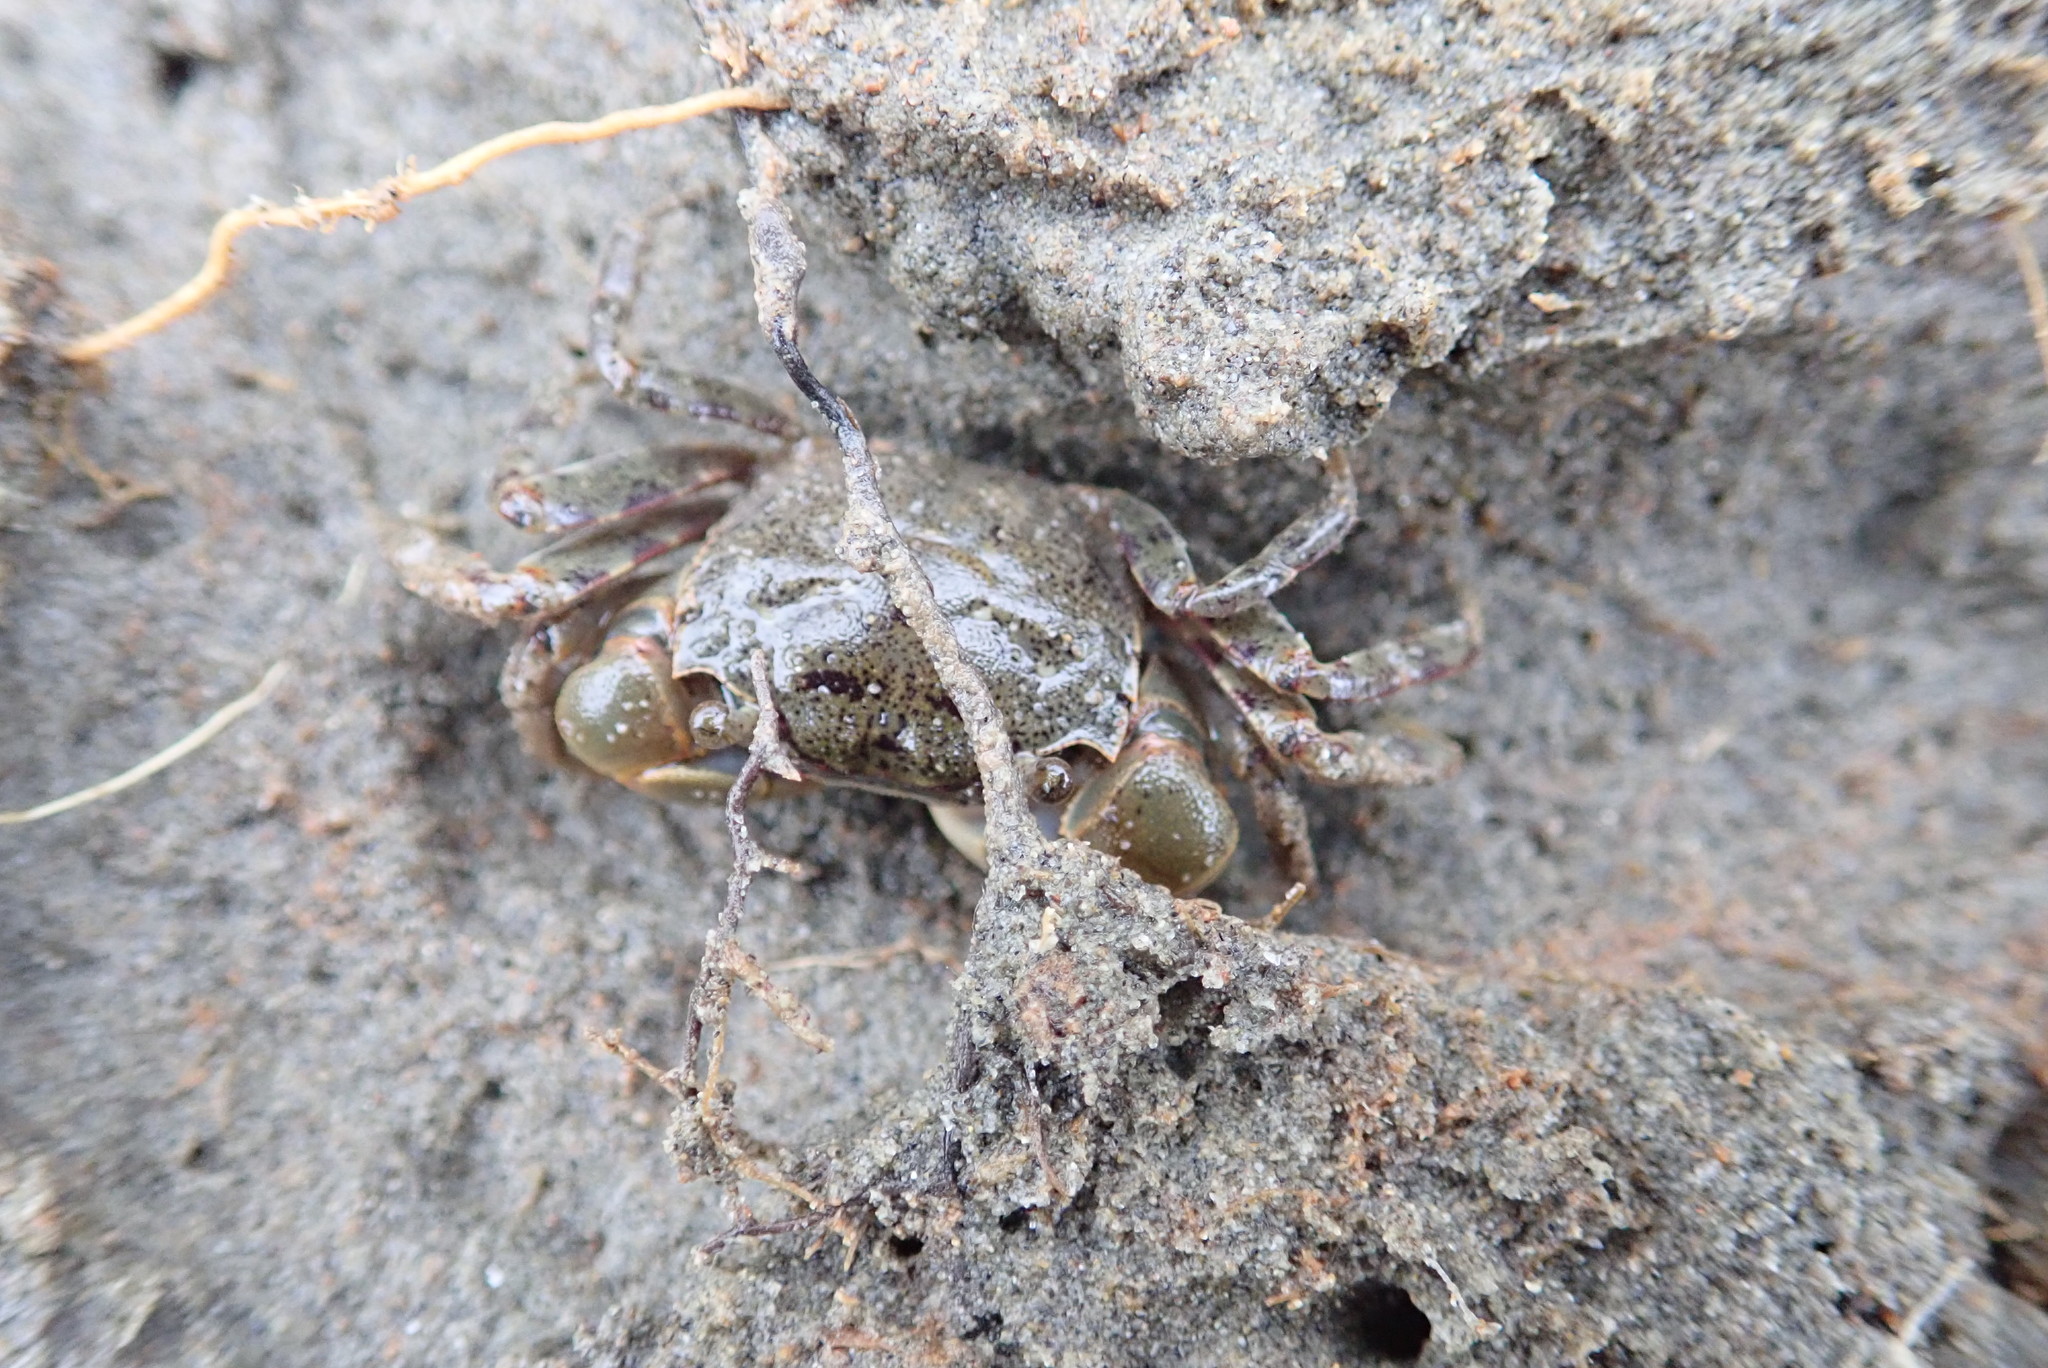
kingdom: Animalia
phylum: Arthropoda
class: Malacostraca
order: Decapoda
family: Varunidae
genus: Austrohelice
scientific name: Austrohelice crassa
